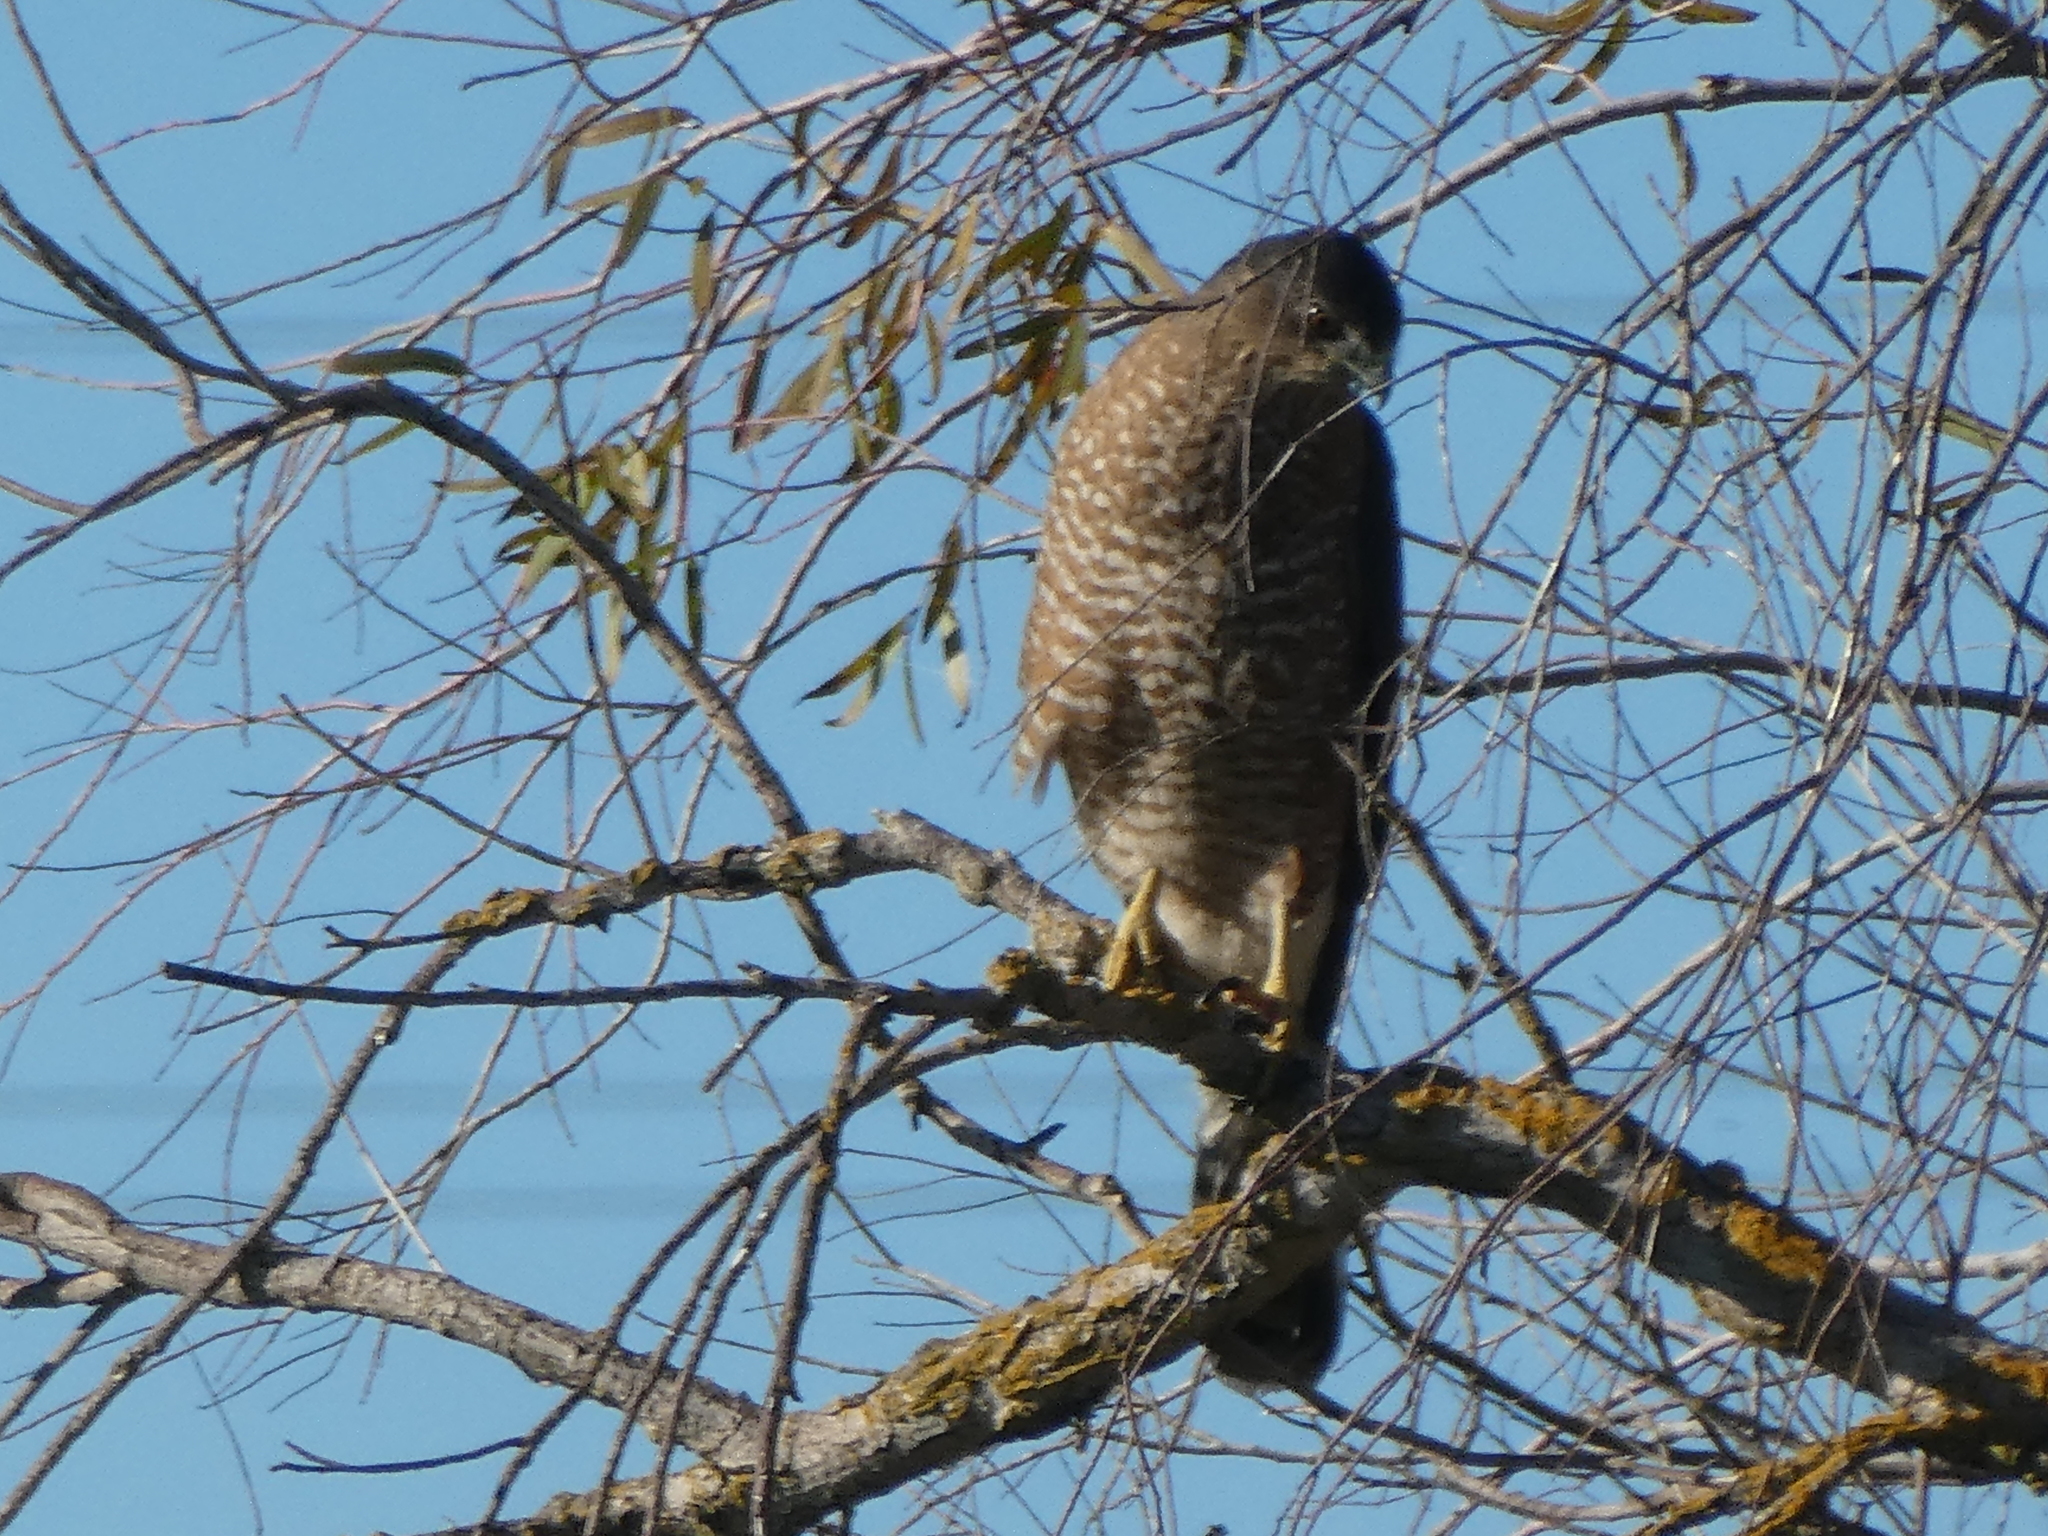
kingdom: Animalia
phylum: Chordata
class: Aves
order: Accipitriformes
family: Accipitridae
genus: Accipiter
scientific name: Accipiter cooperii
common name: Cooper's hawk
